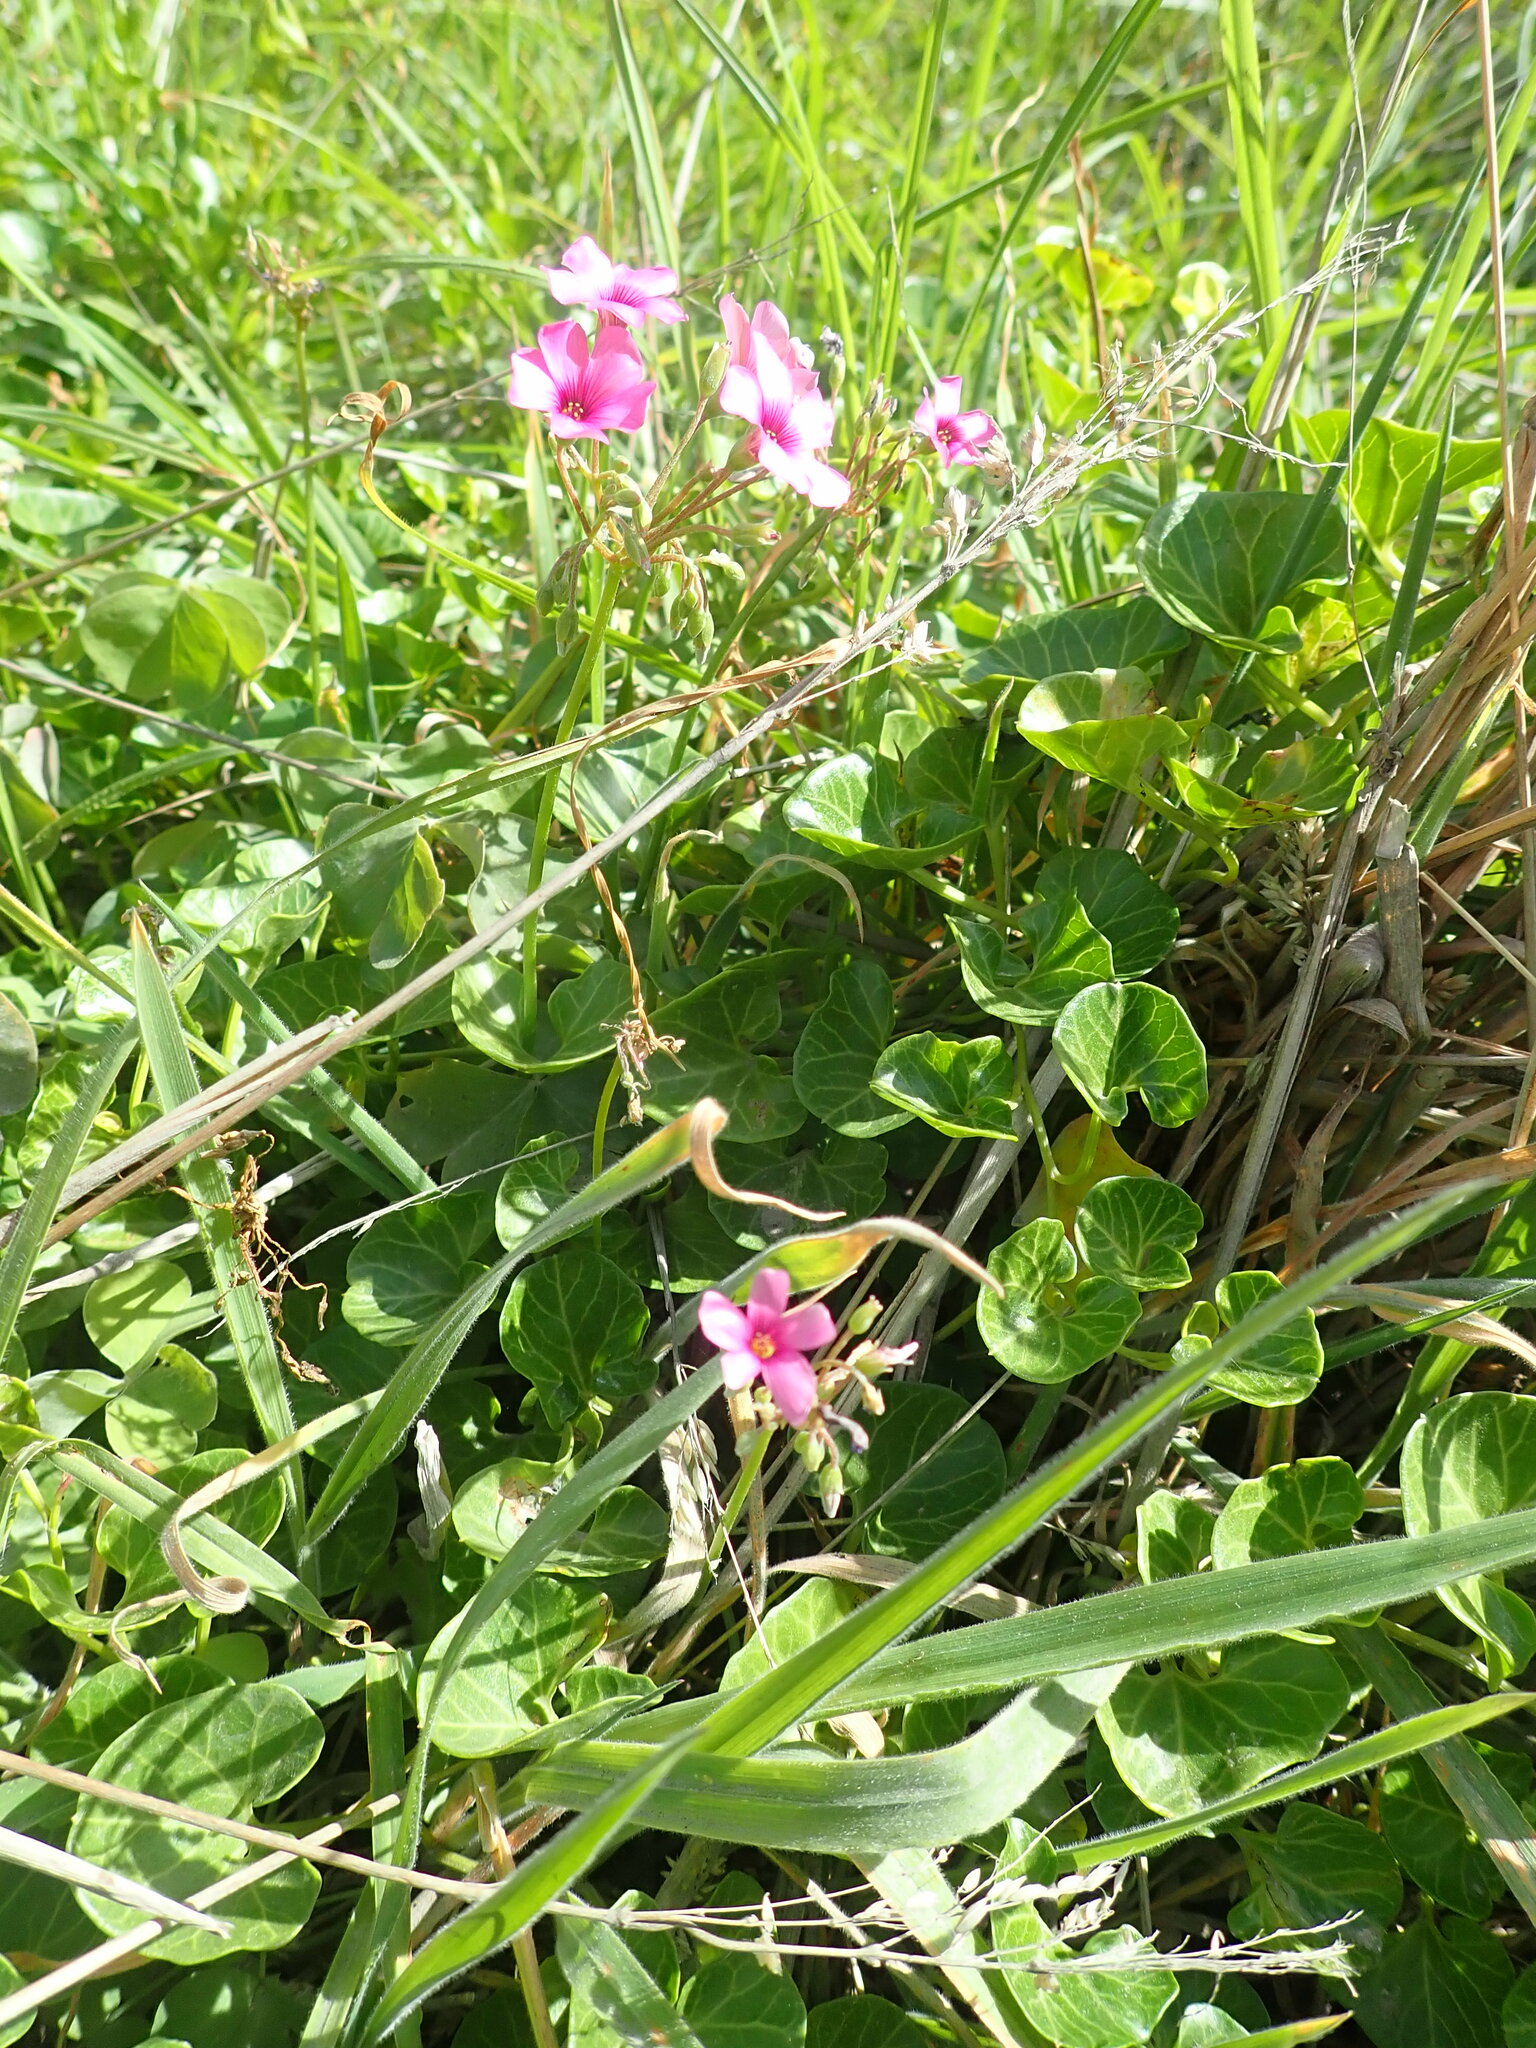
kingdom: Plantae
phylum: Tracheophyta
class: Magnoliopsida
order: Oxalidales
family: Oxalidaceae
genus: Oxalis
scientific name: Oxalis articulata
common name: Pink-sorrel
